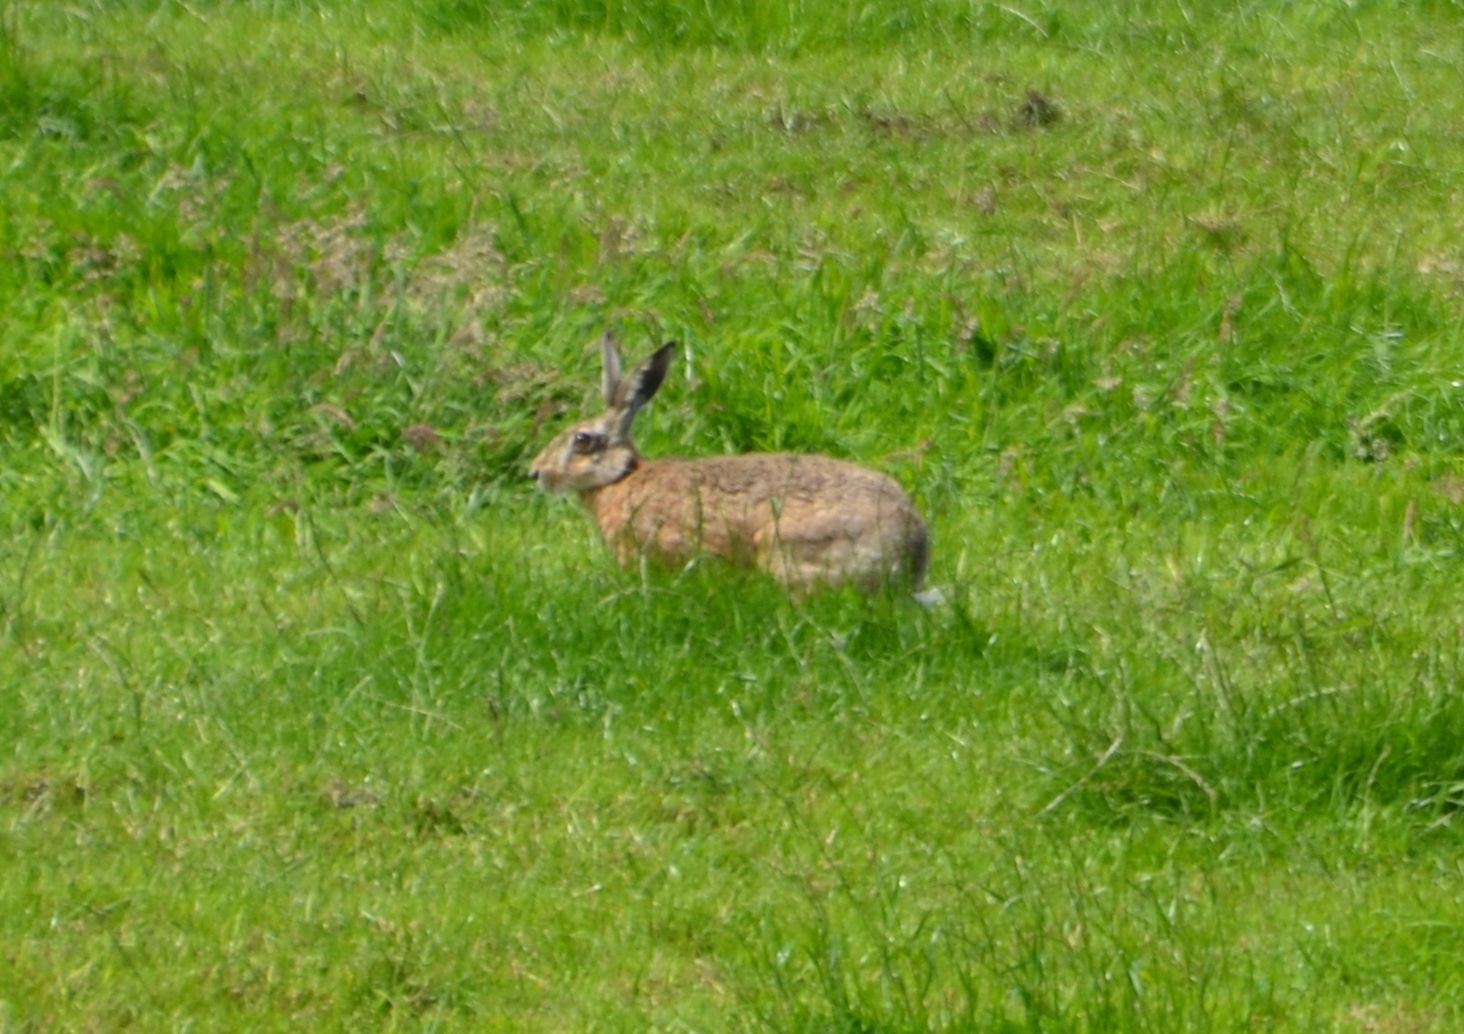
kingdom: Animalia
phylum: Chordata
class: Mammalia
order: Lagomorpha
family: Leporidae
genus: Lepus
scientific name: Lepus europaeus
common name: European hare
